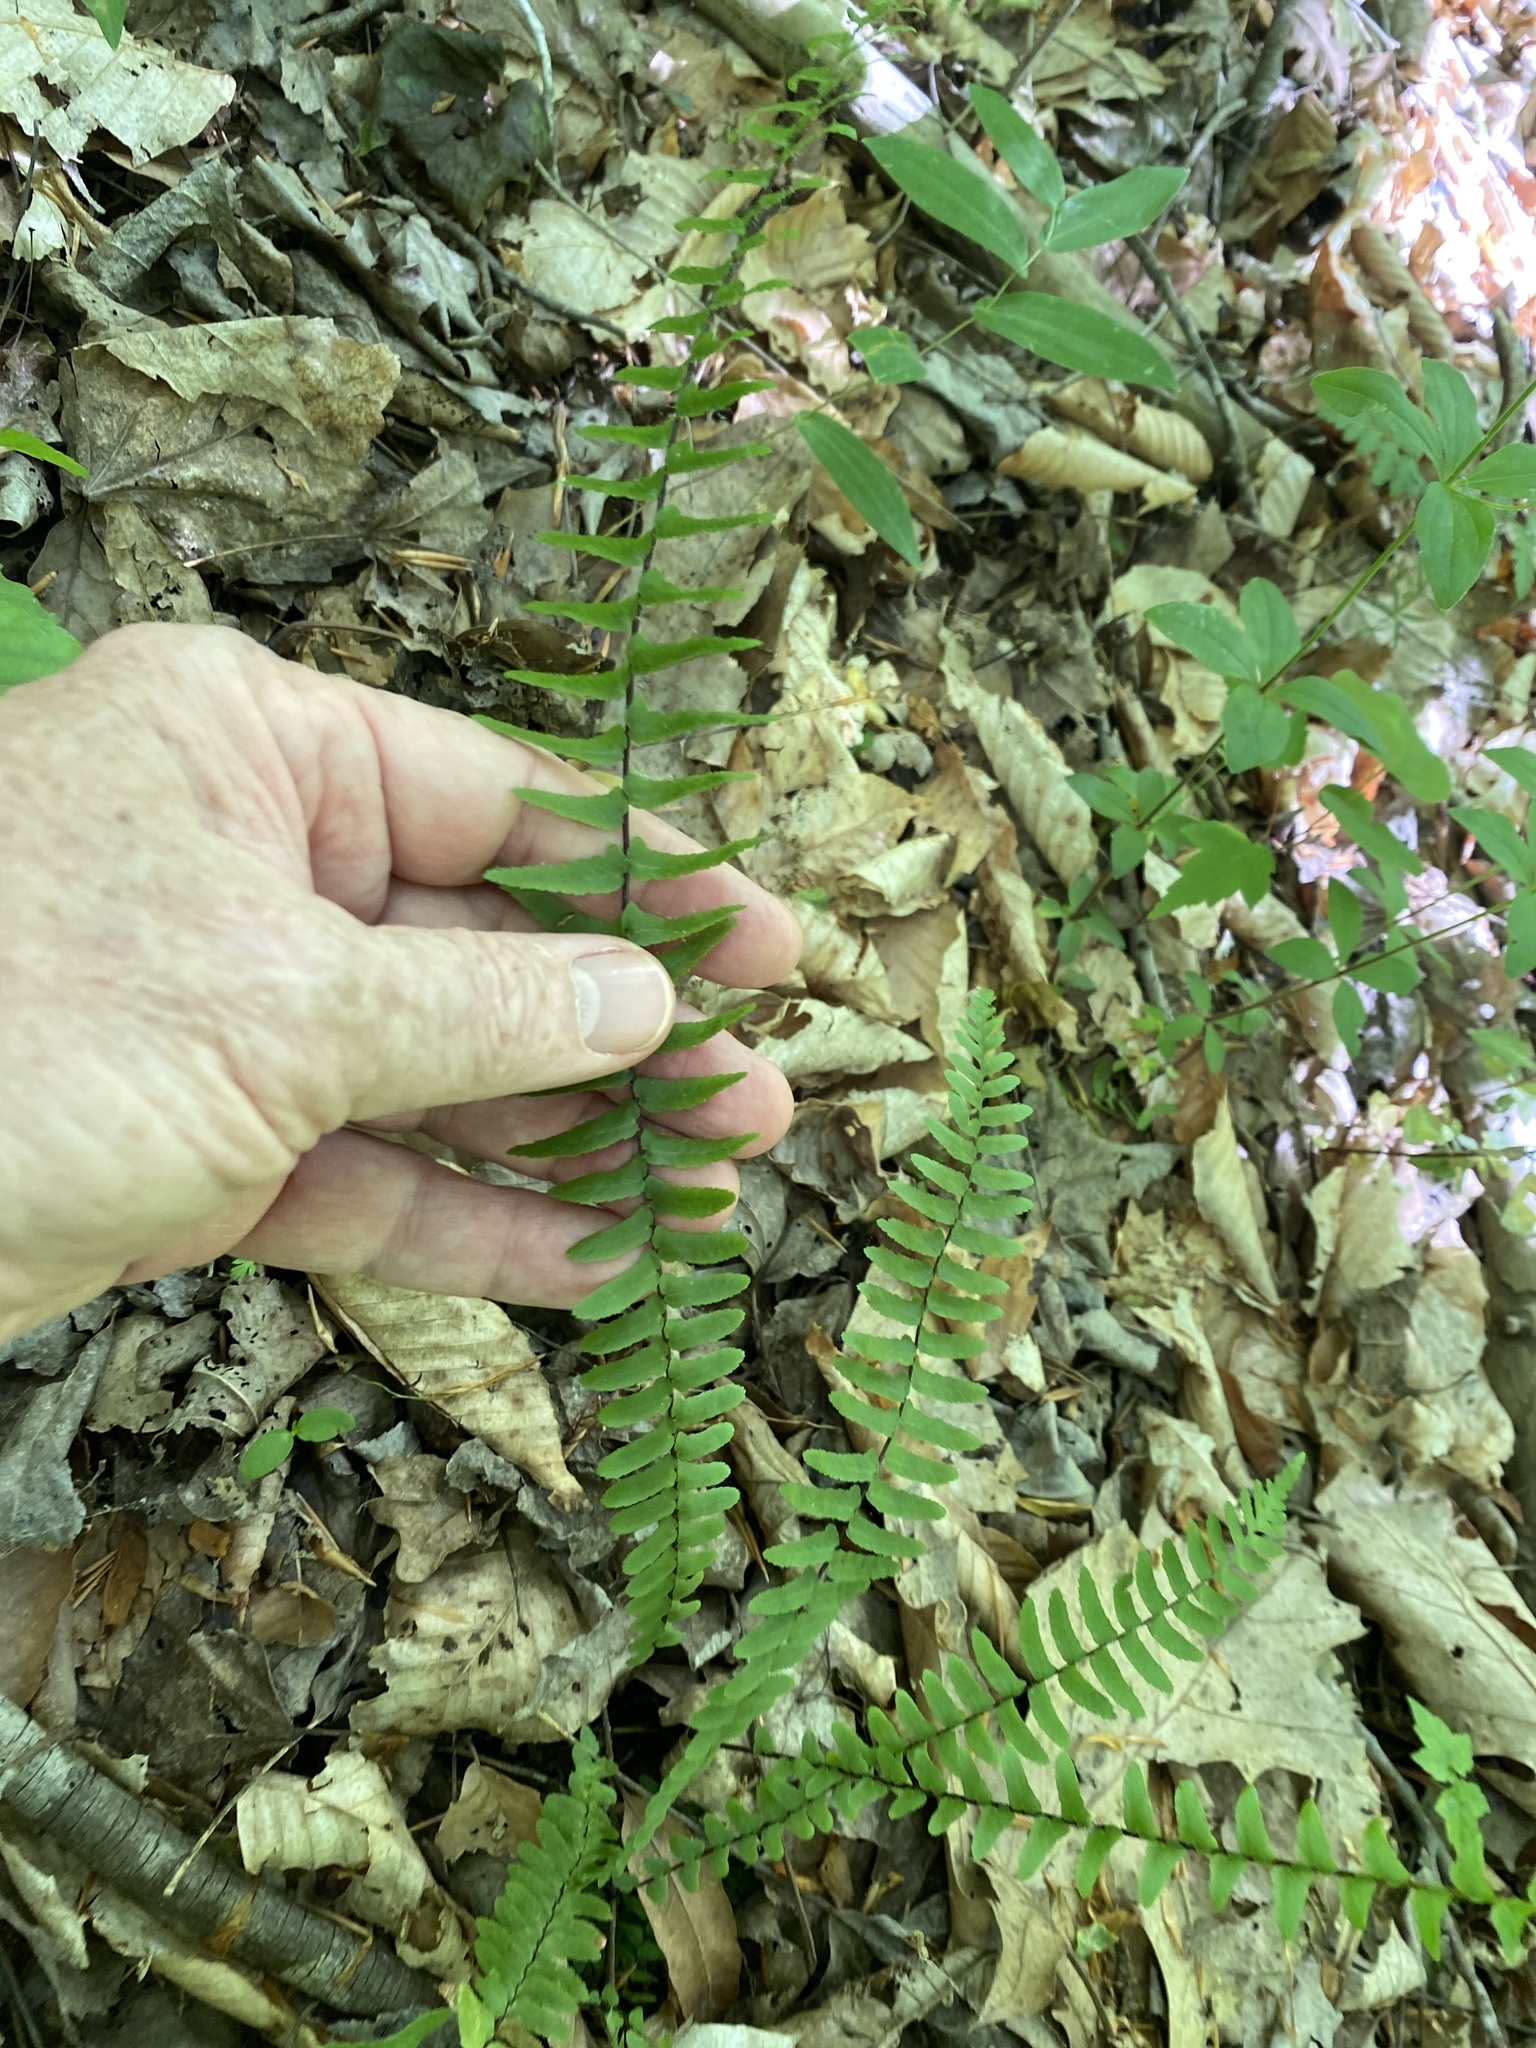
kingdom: Plantae
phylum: Tracheophyta
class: Polypodiopsida
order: Polypodiales
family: Aspleniaceae
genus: Asplenium
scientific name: Asplenium platyneuron
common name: Ebony spleenwort
